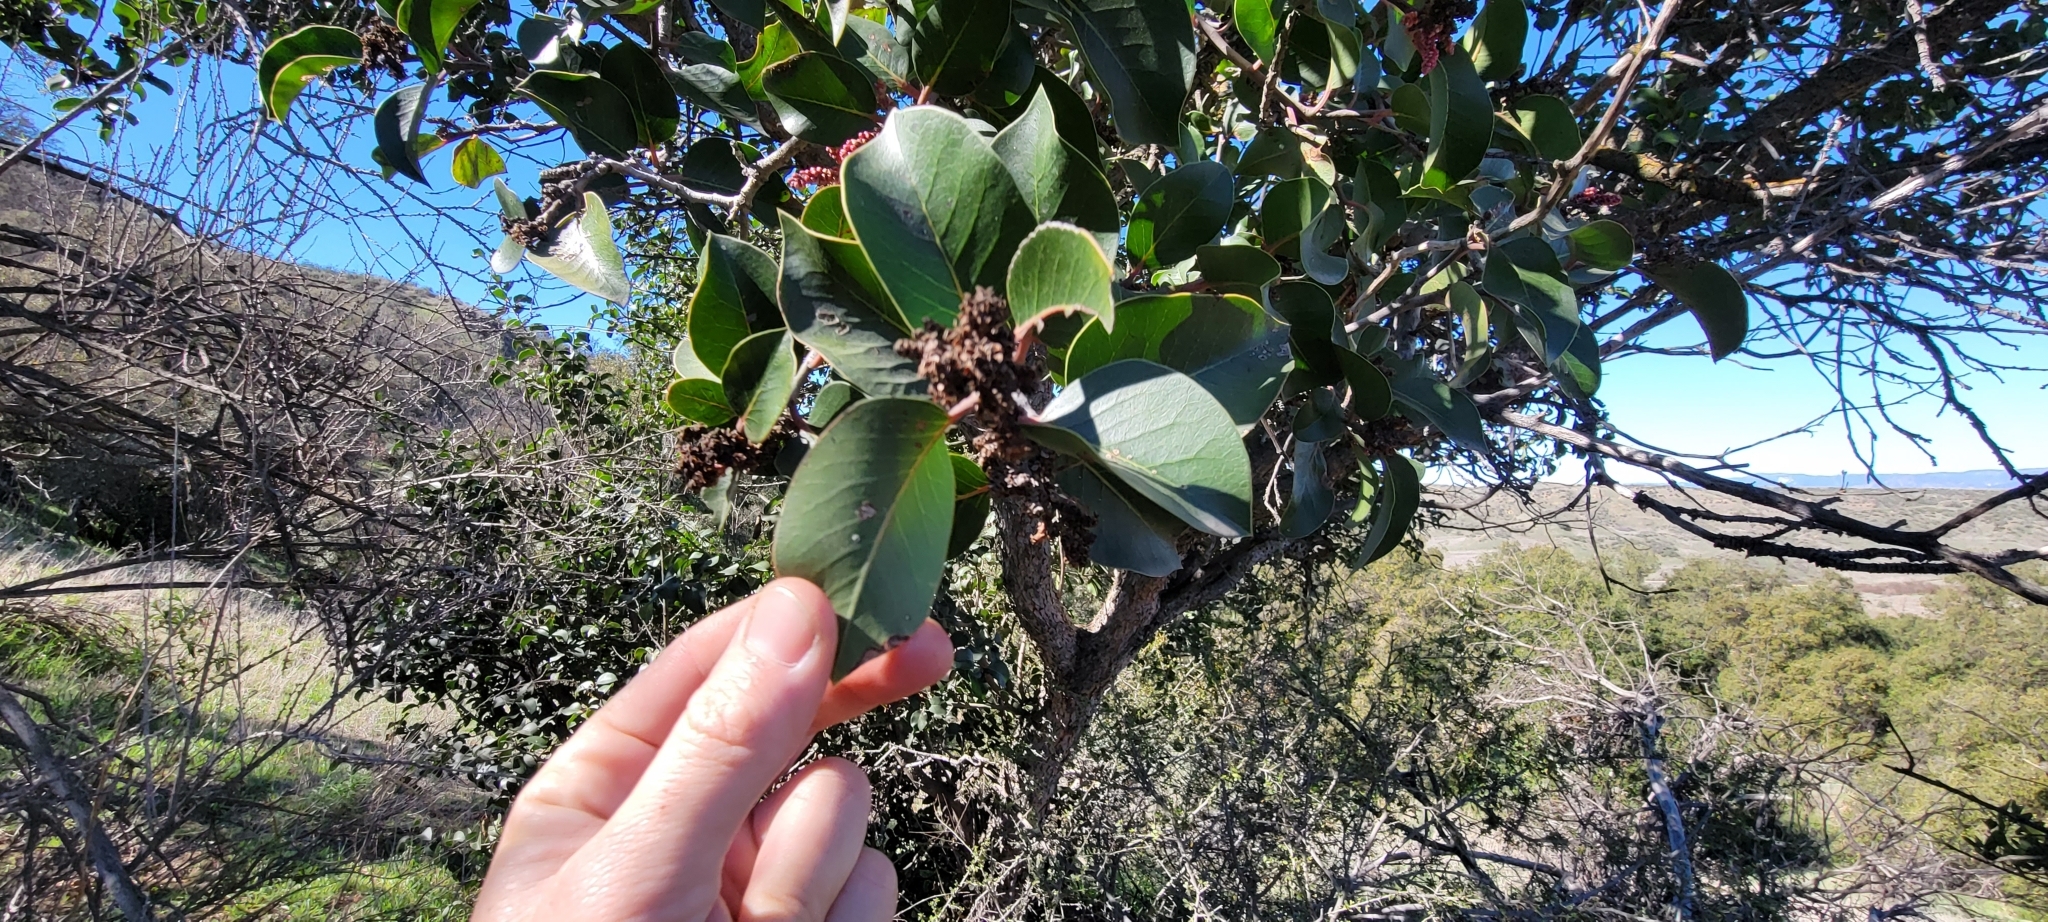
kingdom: Plantae
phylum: Tracheophyta
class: Magnoliopsida
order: Sapindales
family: Anacardiaceae
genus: Rhus
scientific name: Rhus ovata
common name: Sugar sumac
